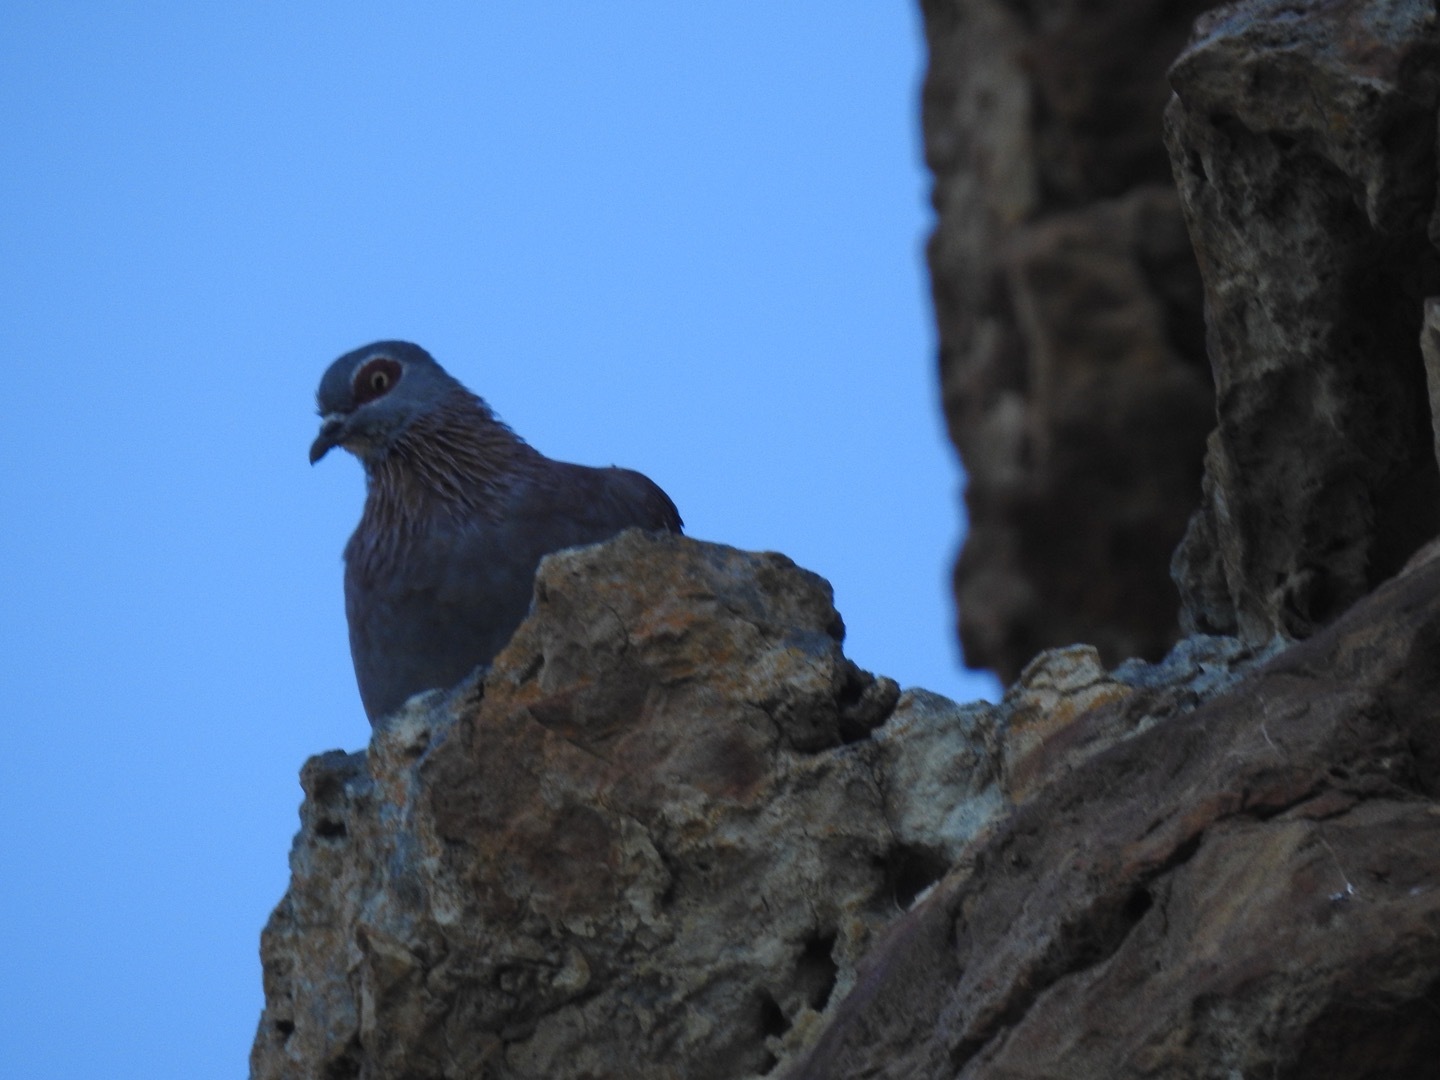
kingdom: Animalia
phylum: Chordata
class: Aves
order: Columbiformes
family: Columbidae
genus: Columba
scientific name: Columba guinea
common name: Speckled pigeon
